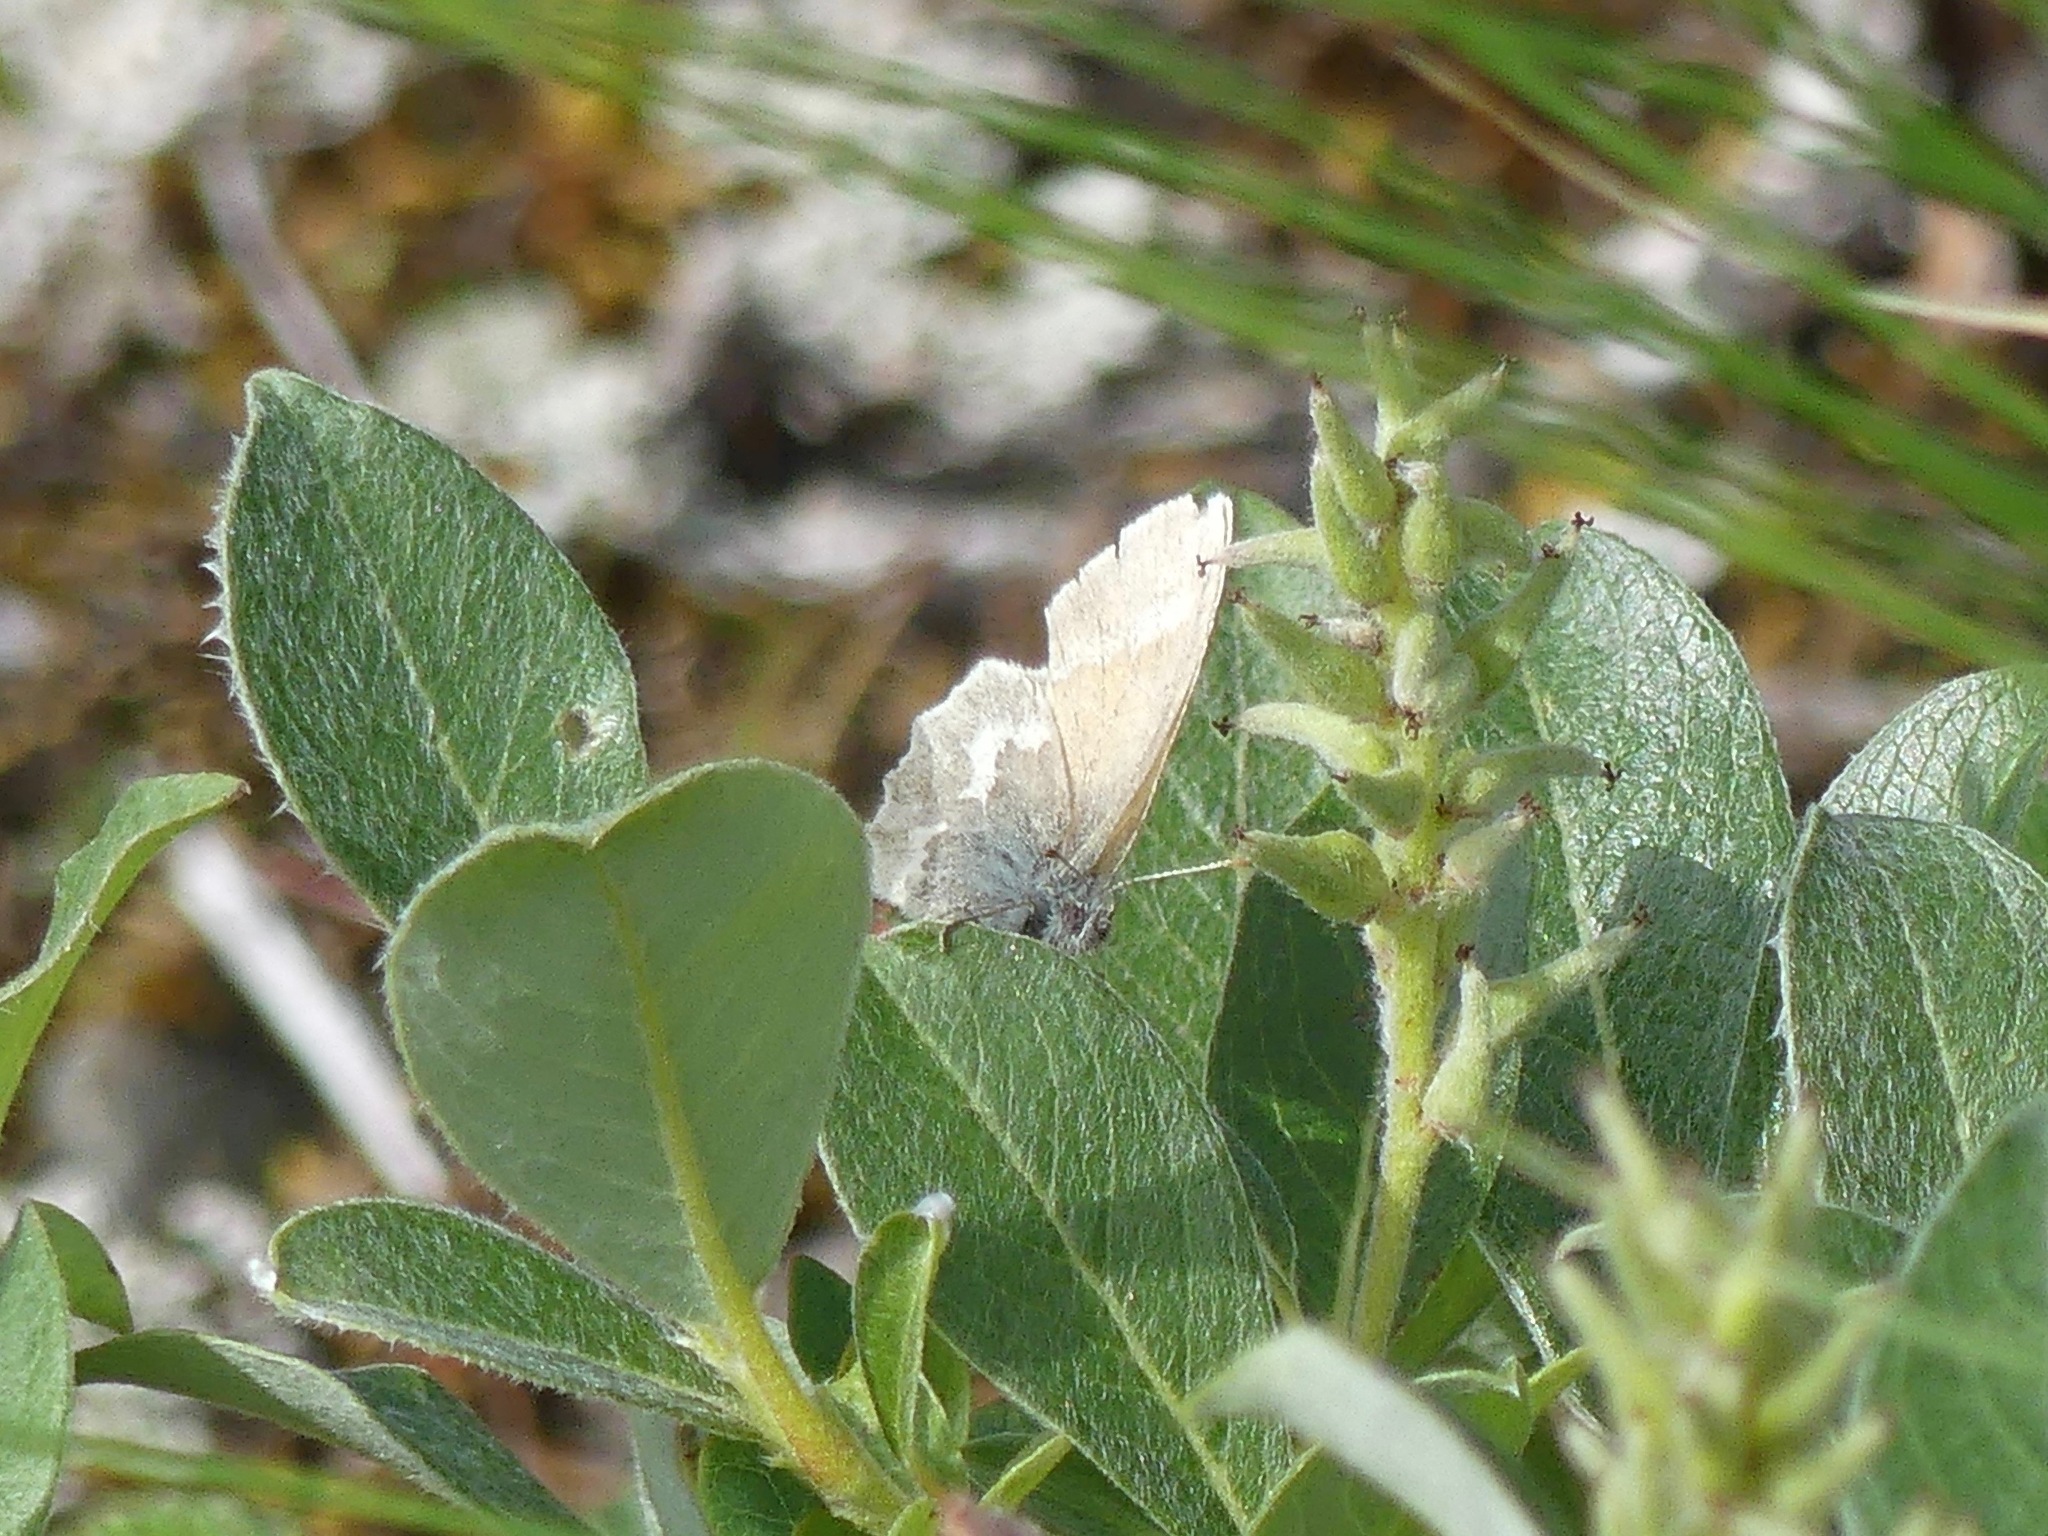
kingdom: Animalia
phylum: Arthropoda
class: Insecta
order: Lepidoptera
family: Nymphalidae
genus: Coenonympha
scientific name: Coenonympha tullia
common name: Large heath
